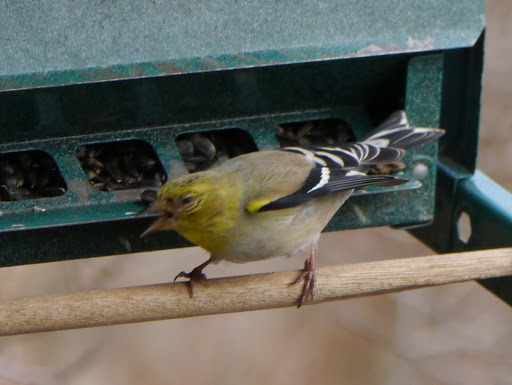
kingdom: Animalia
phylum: Chordata
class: Aves
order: Passeriformes
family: Fringillidae
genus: Spinus
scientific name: Spinus tristis
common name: American goldfinch
